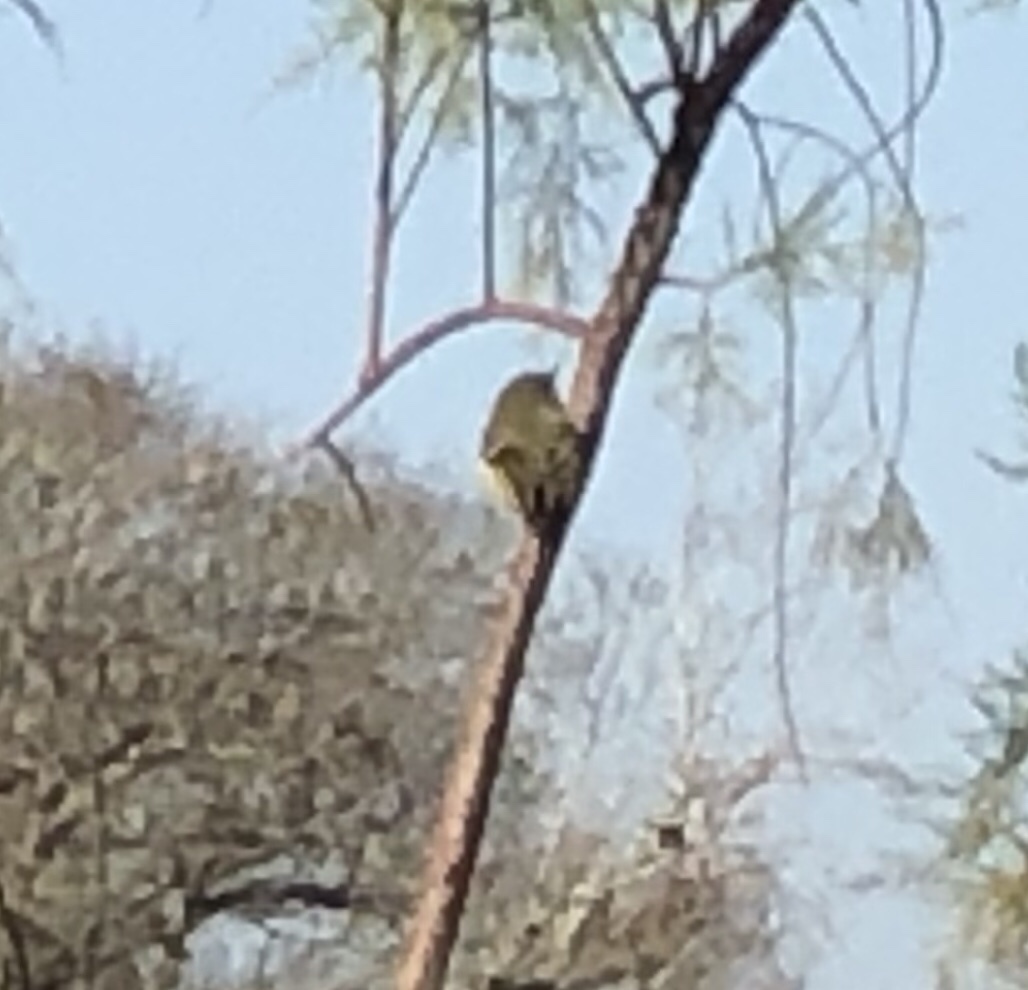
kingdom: Animalia
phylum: Chordata
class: Aves
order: Passeriformes
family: Regulidae
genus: Regulus
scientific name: Regulus calendula
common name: Ruby-crowned kinglet
